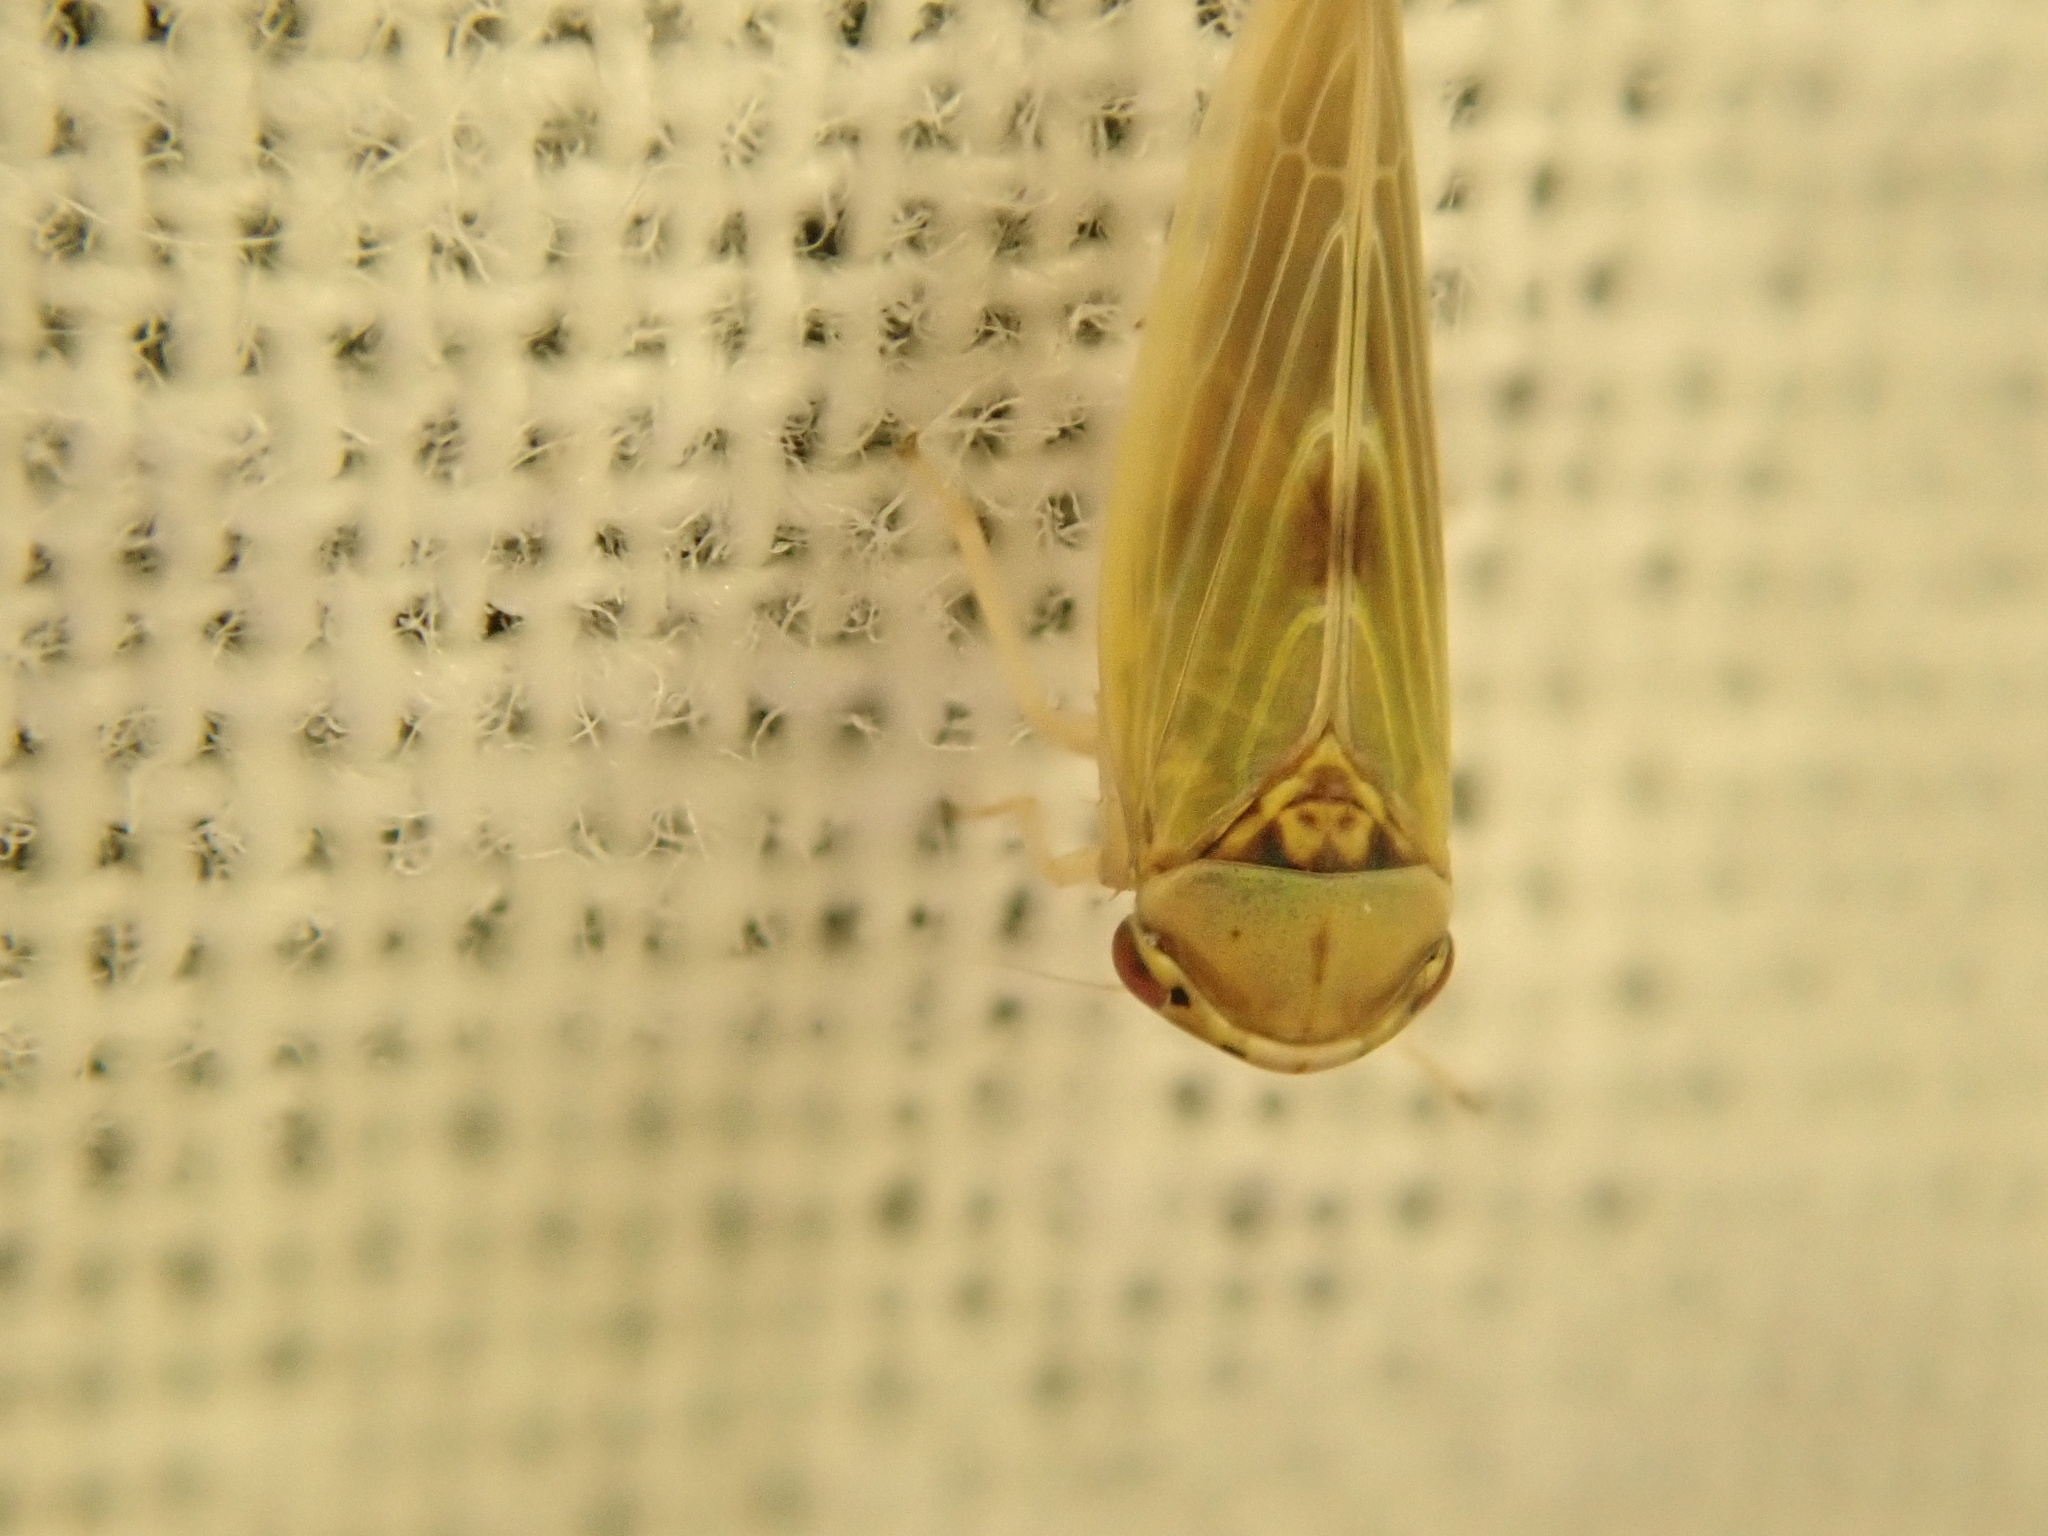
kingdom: Animalia
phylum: Arthropoda
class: Insecta
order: Hemiptera
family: Cicadellidae
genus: Agalliopsis
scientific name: Agalliopsis ancistra
